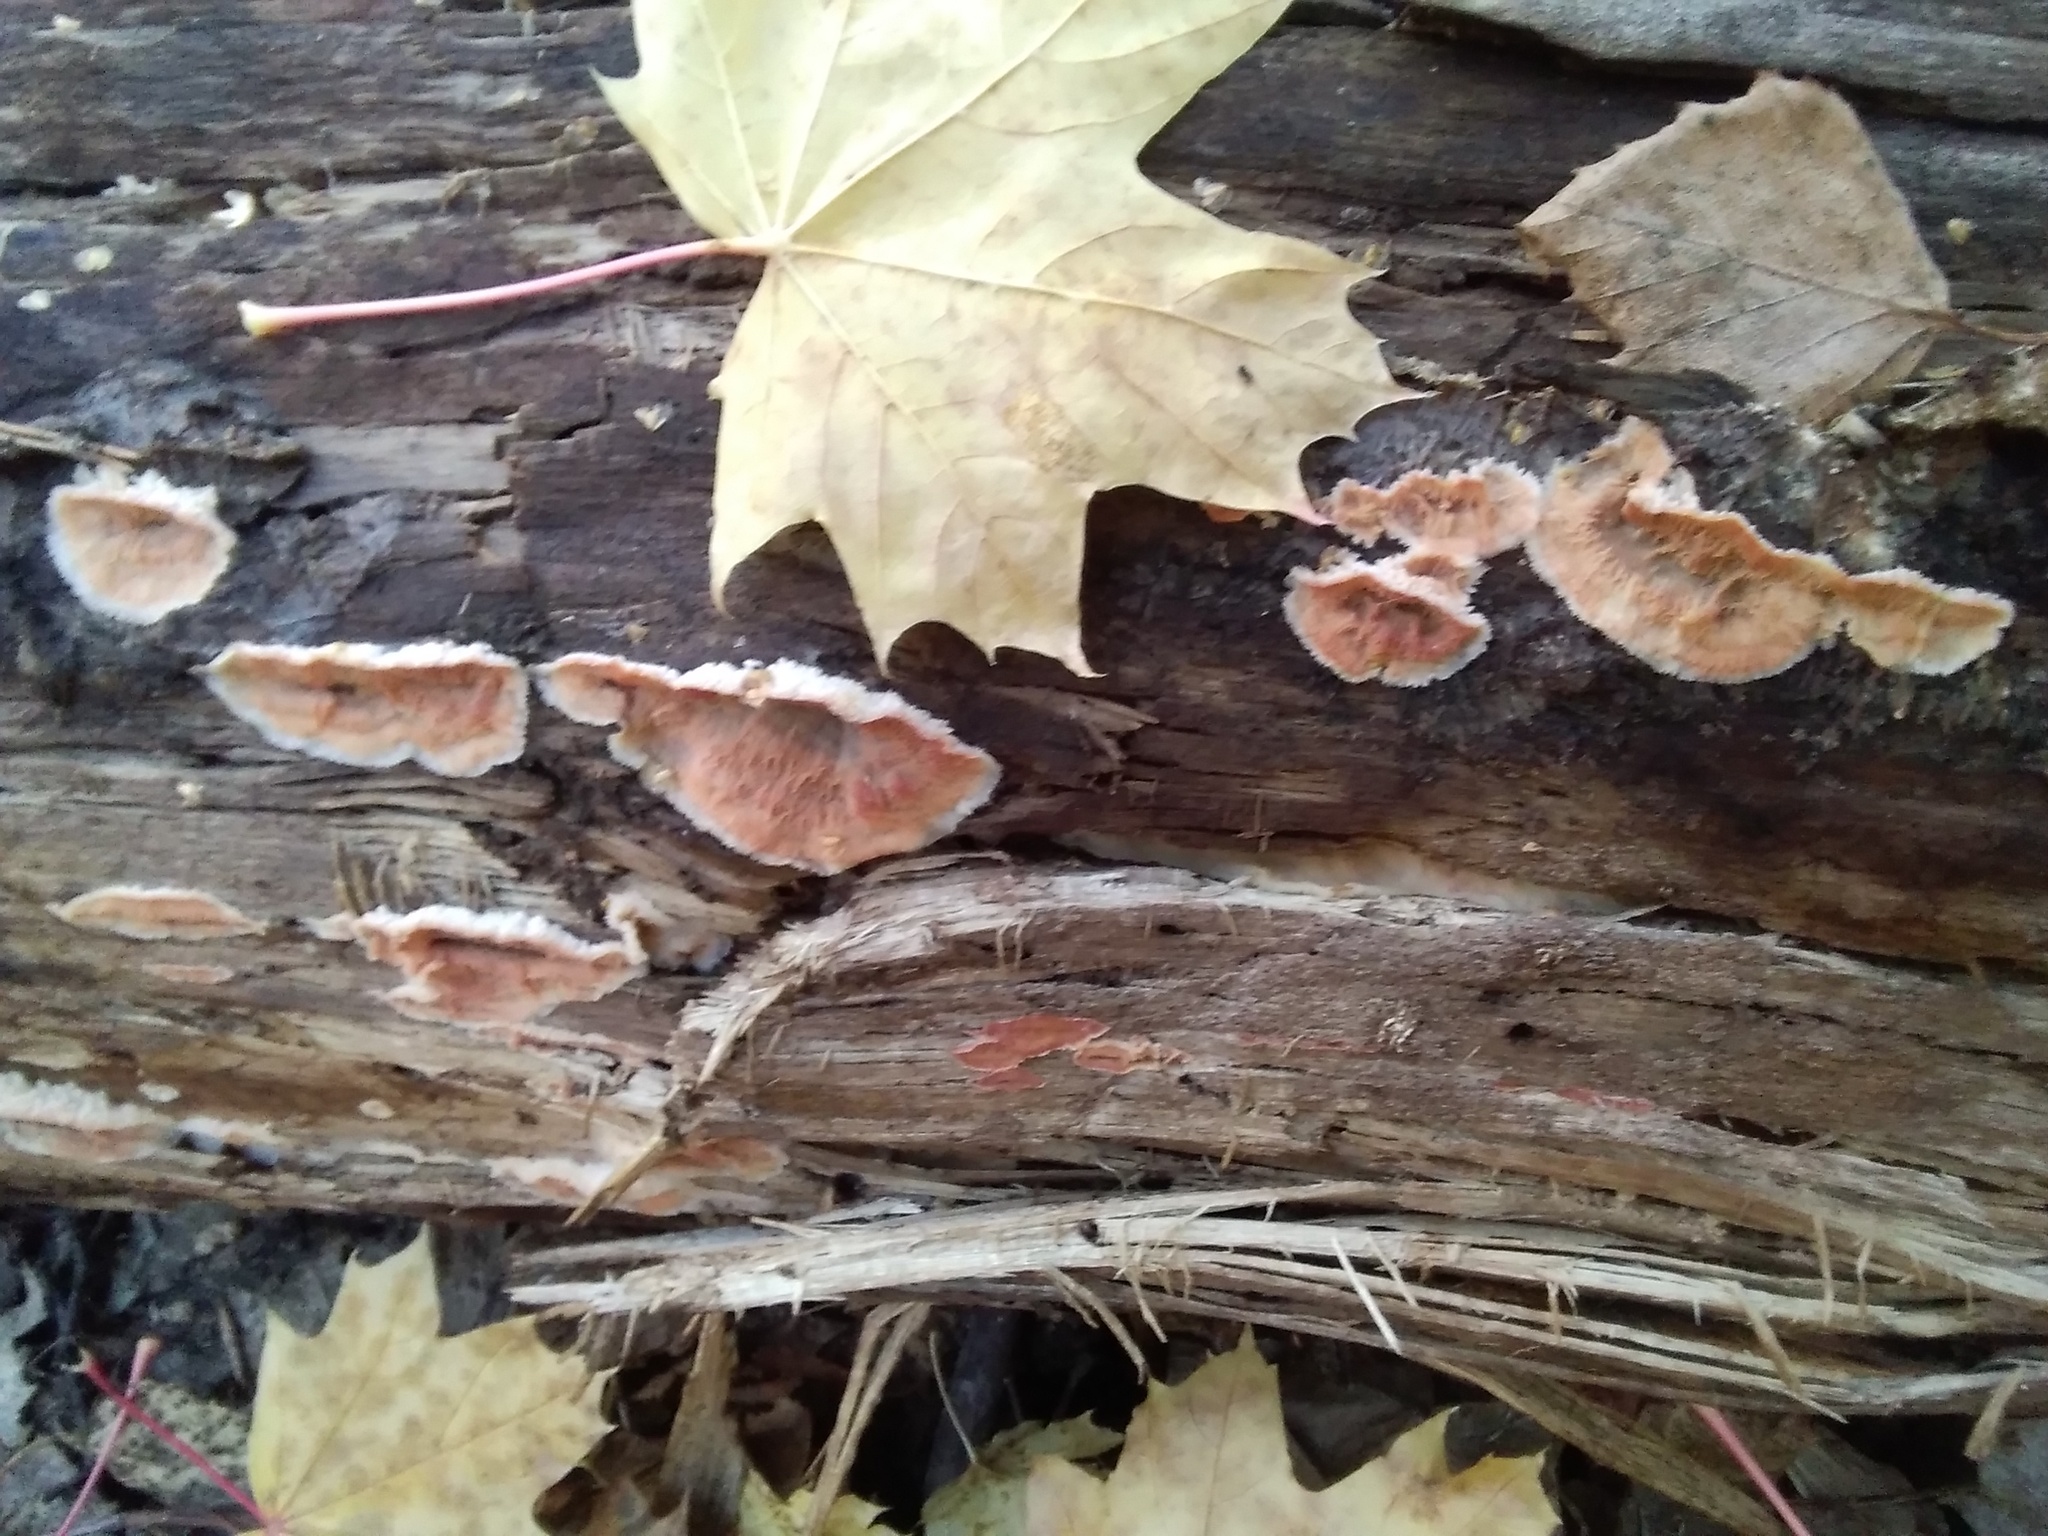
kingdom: Fungi
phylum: Basidiomycota
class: Agaricomycetes
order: Polyporales
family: Meruliaceae
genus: Phlebia
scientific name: Phlebia tremellosa
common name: Jelly rot
